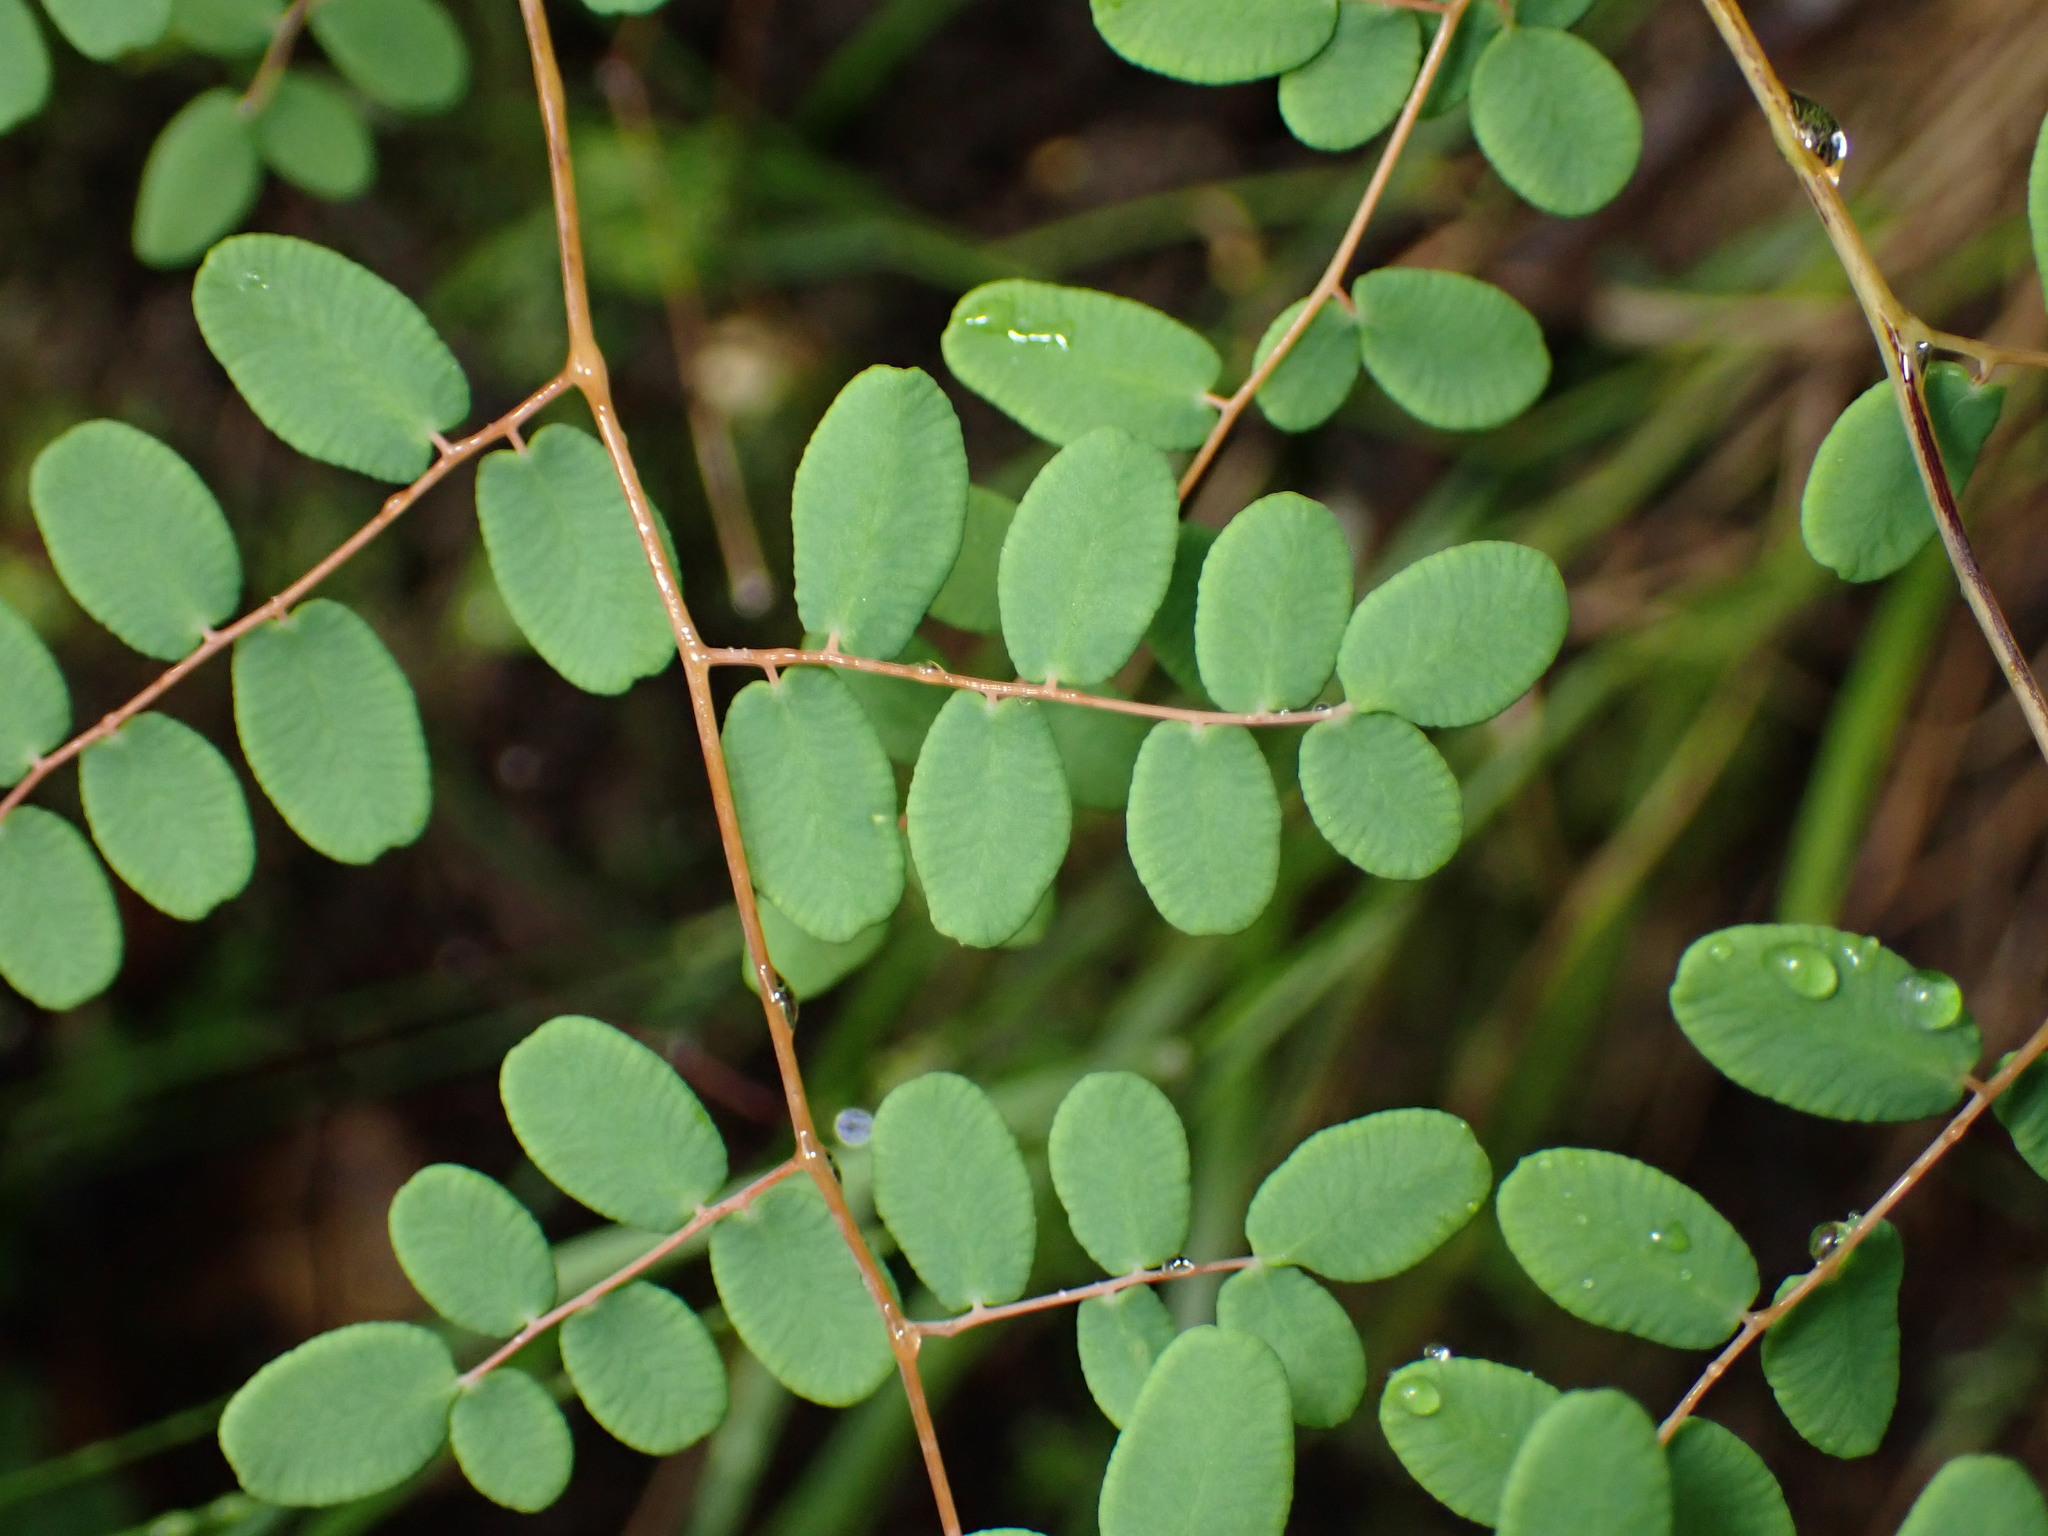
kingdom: Plantae
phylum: Tracheophyta
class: Polypodiopsida
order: Polypodiales
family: Pteridaceae
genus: Pellaea
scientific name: Pellaea andromedifolia
